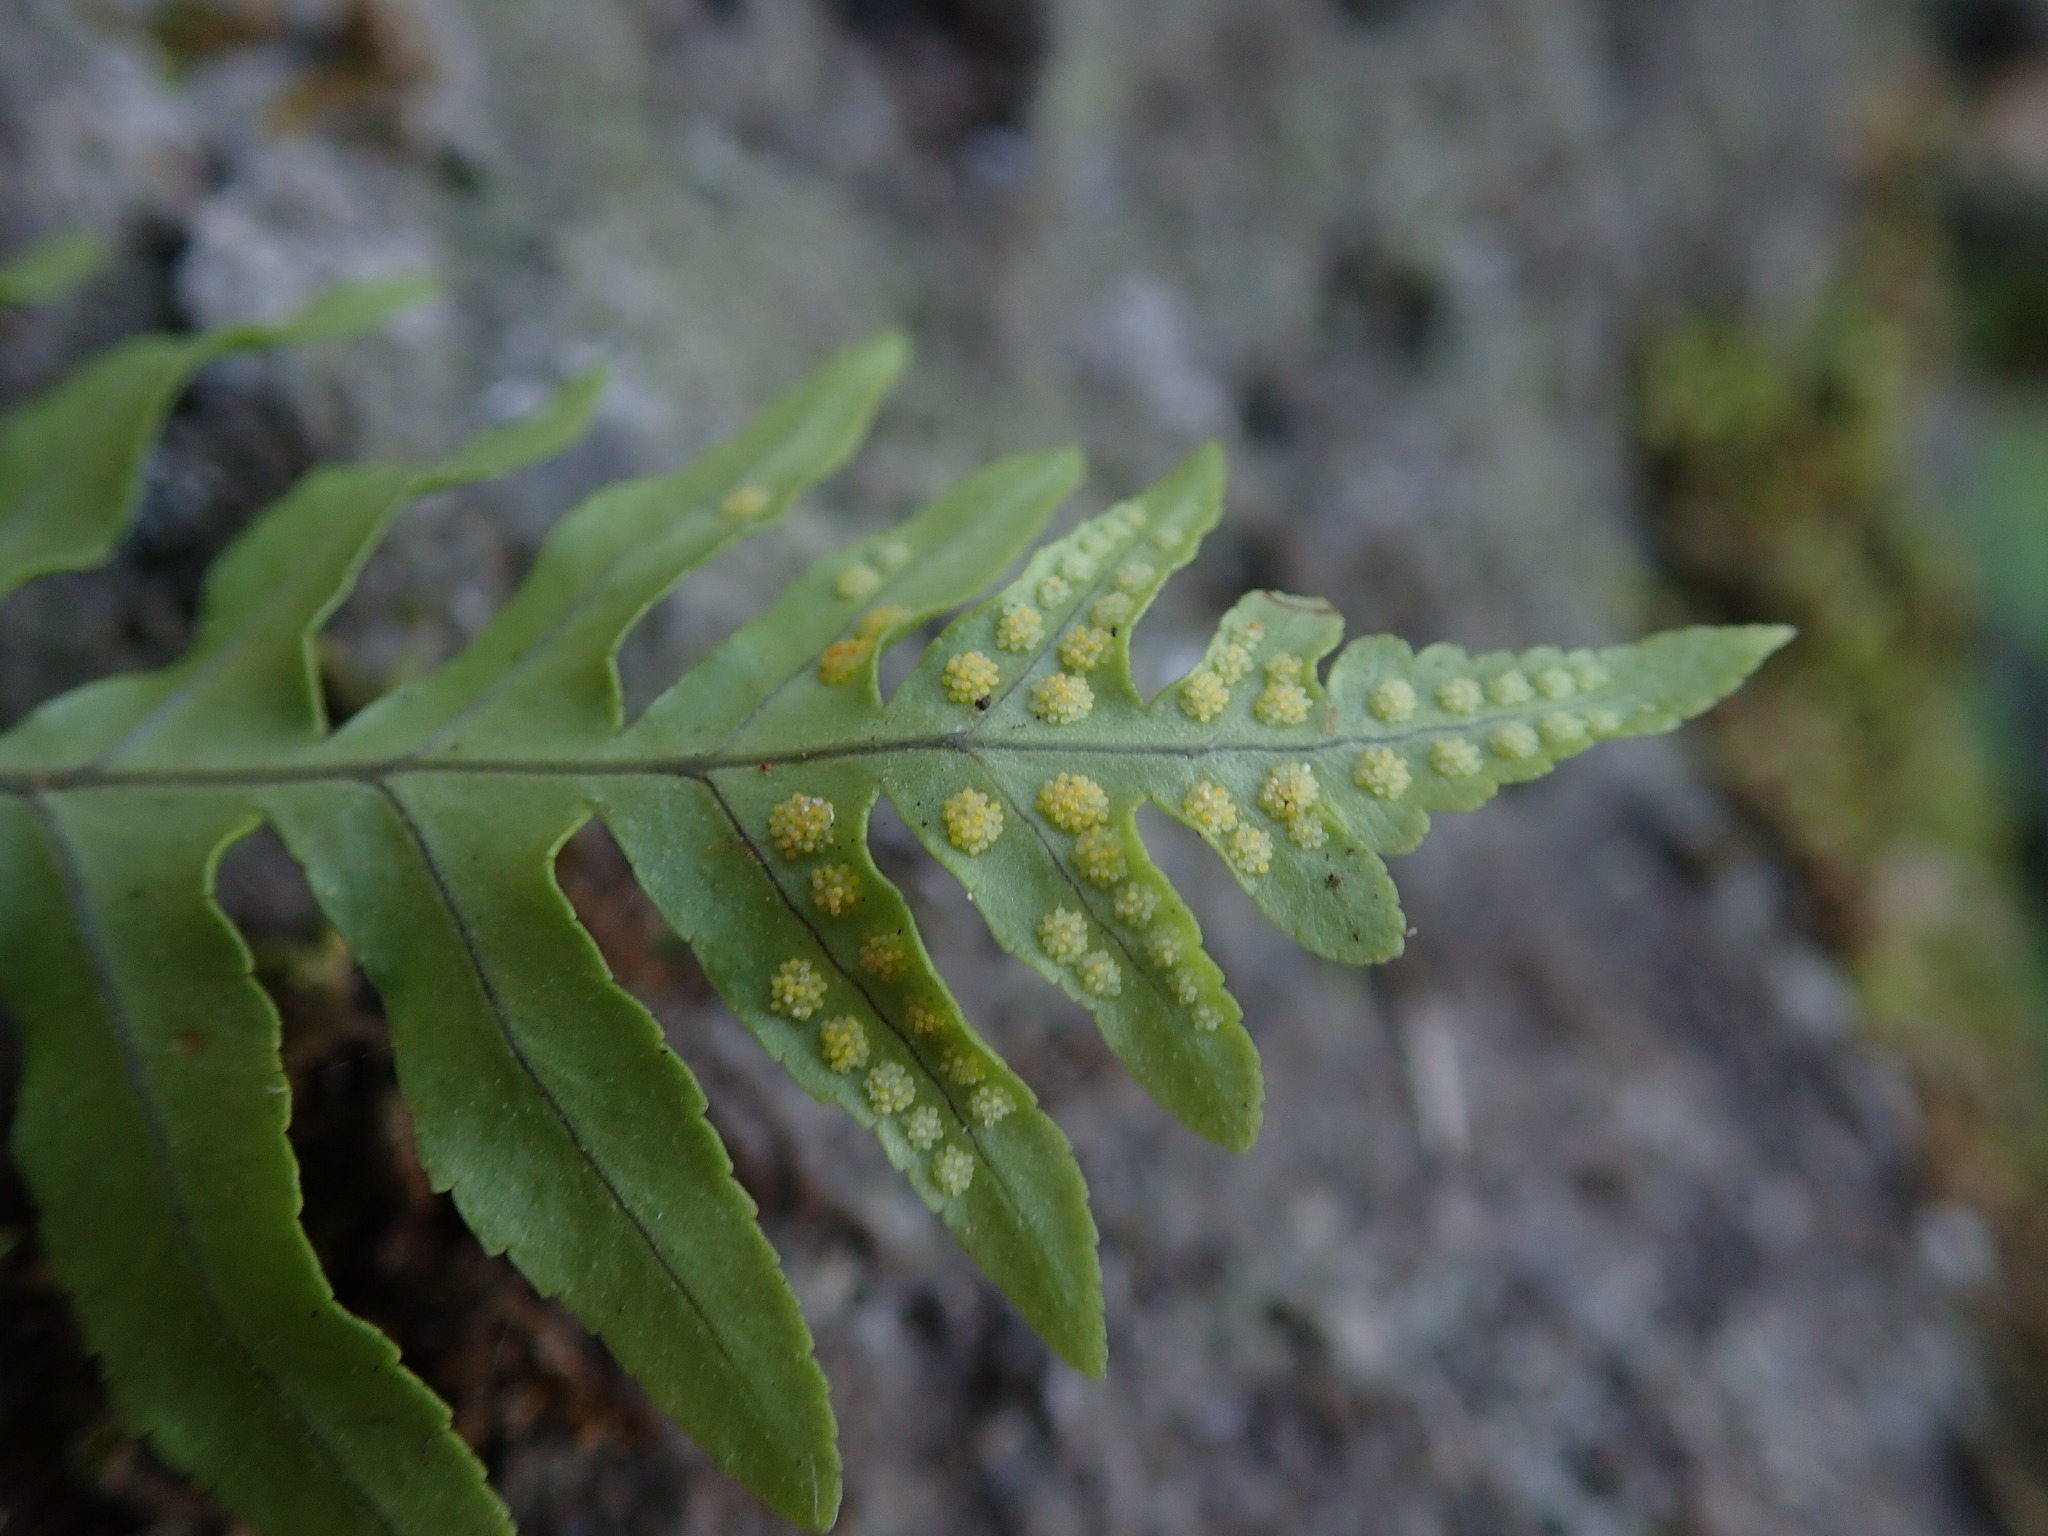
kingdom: Plantae
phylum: Tracheophyta
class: Polypodiopsida
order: Polypodiales
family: Polypodiaceae
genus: Polypodium
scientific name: Polypodium macaronesicum
